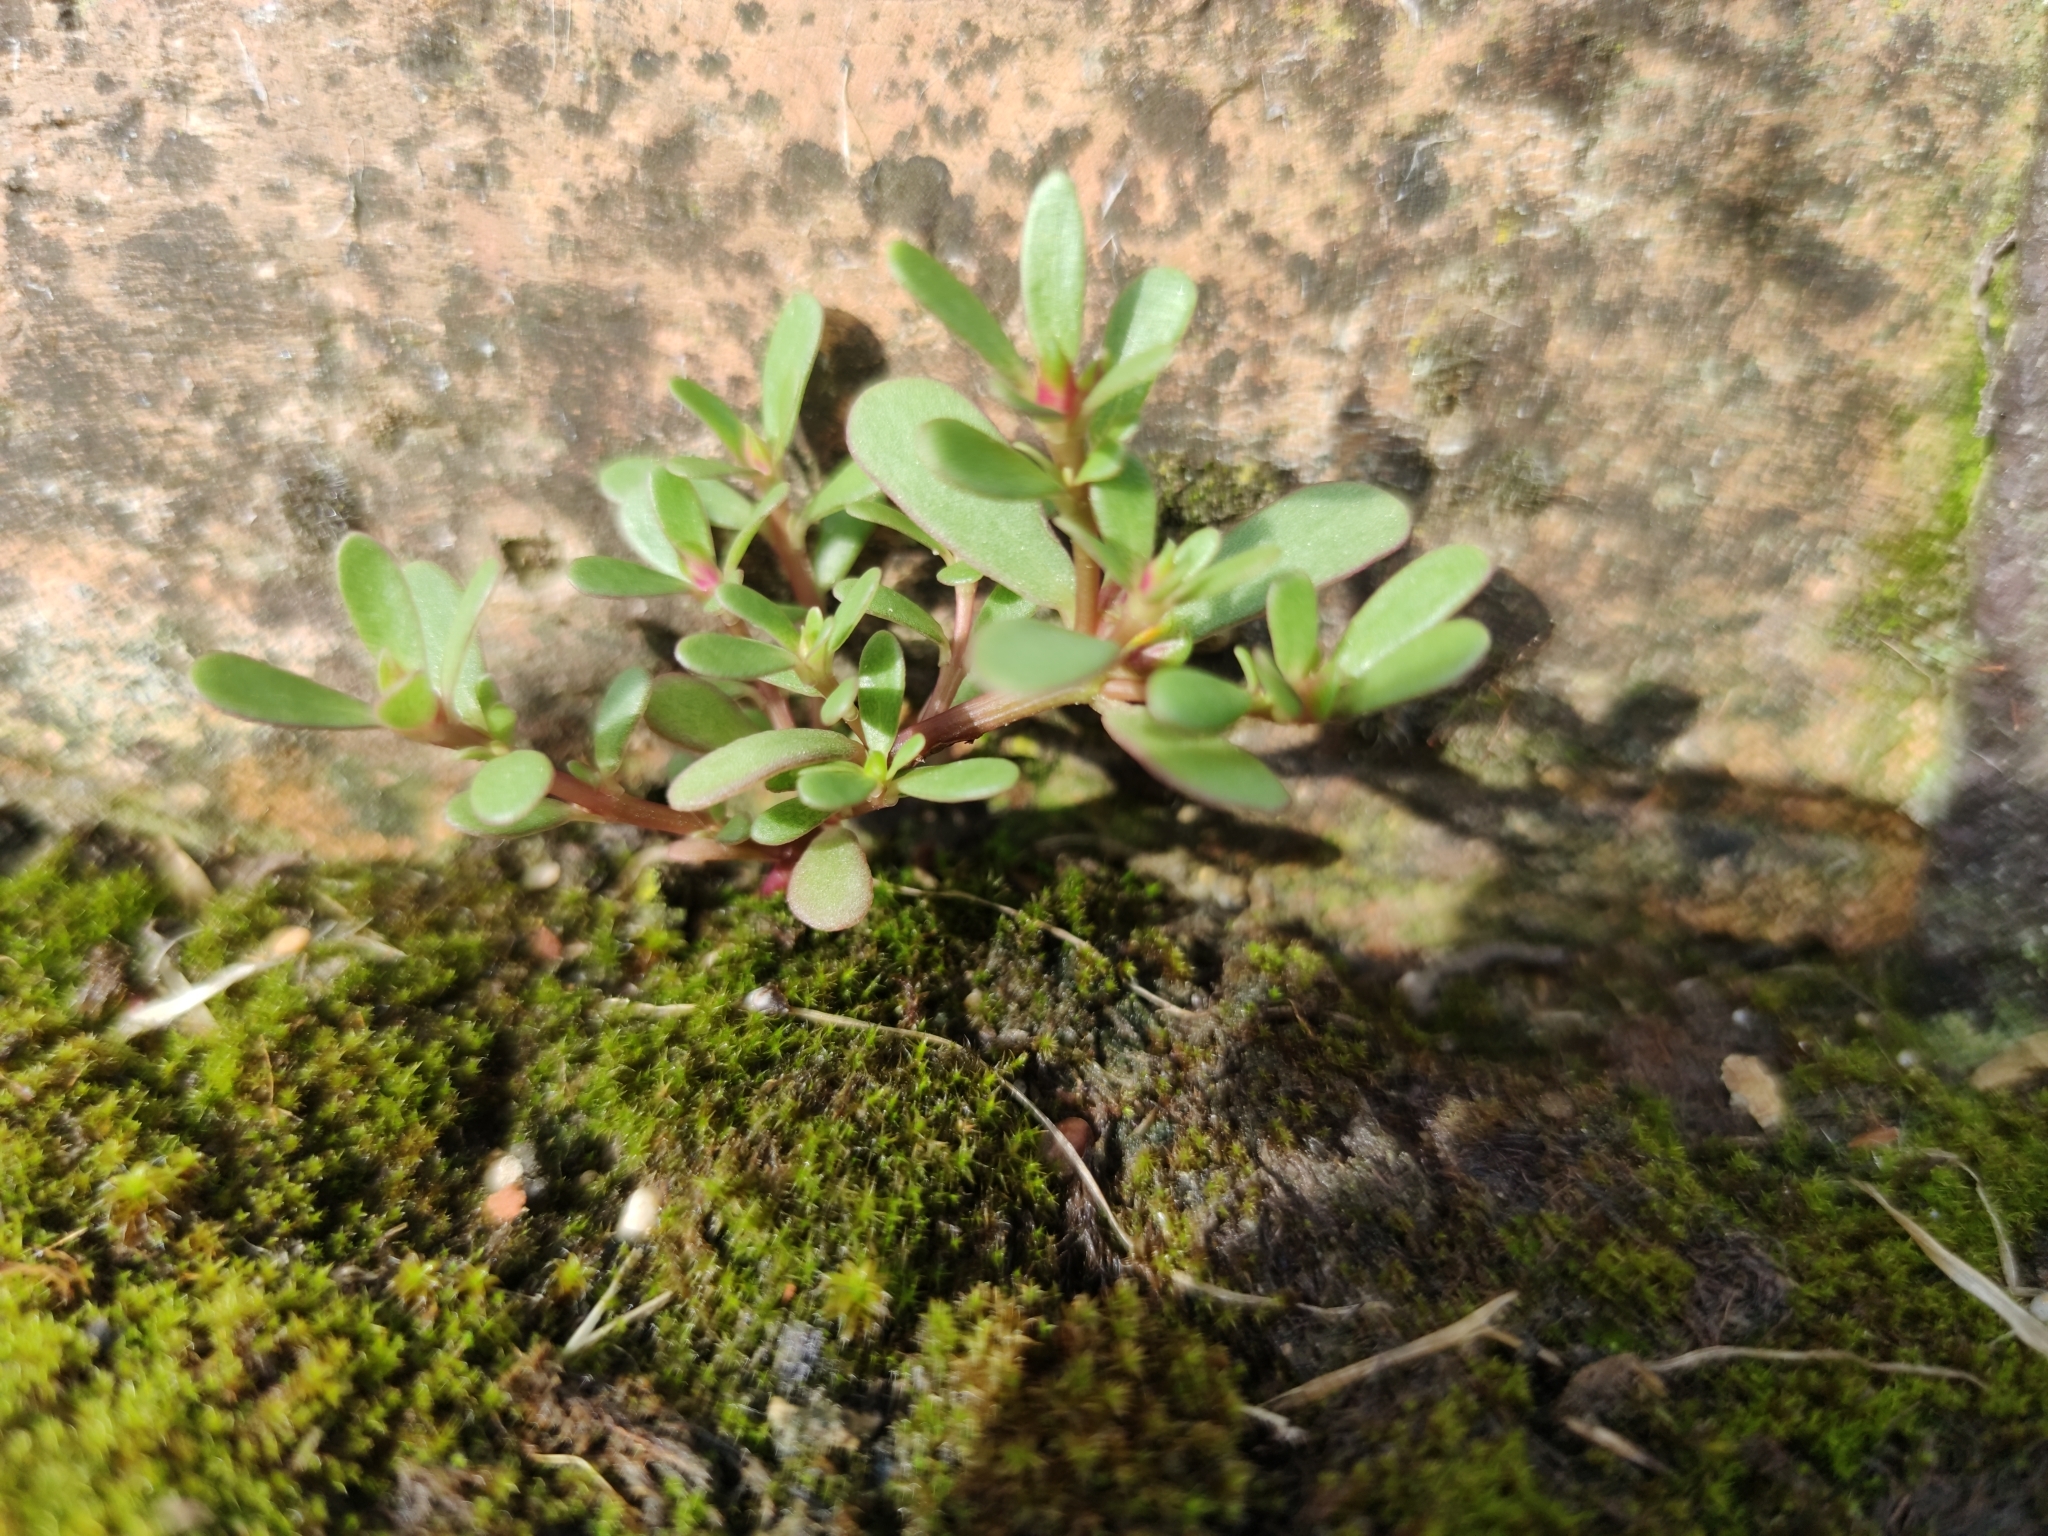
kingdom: Plantae
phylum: Tracheophyta
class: Magnoliopsida
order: Caryophyllales
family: Portulacaceae
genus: Portulaca
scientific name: Portulaca oleracea
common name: Common purslane
